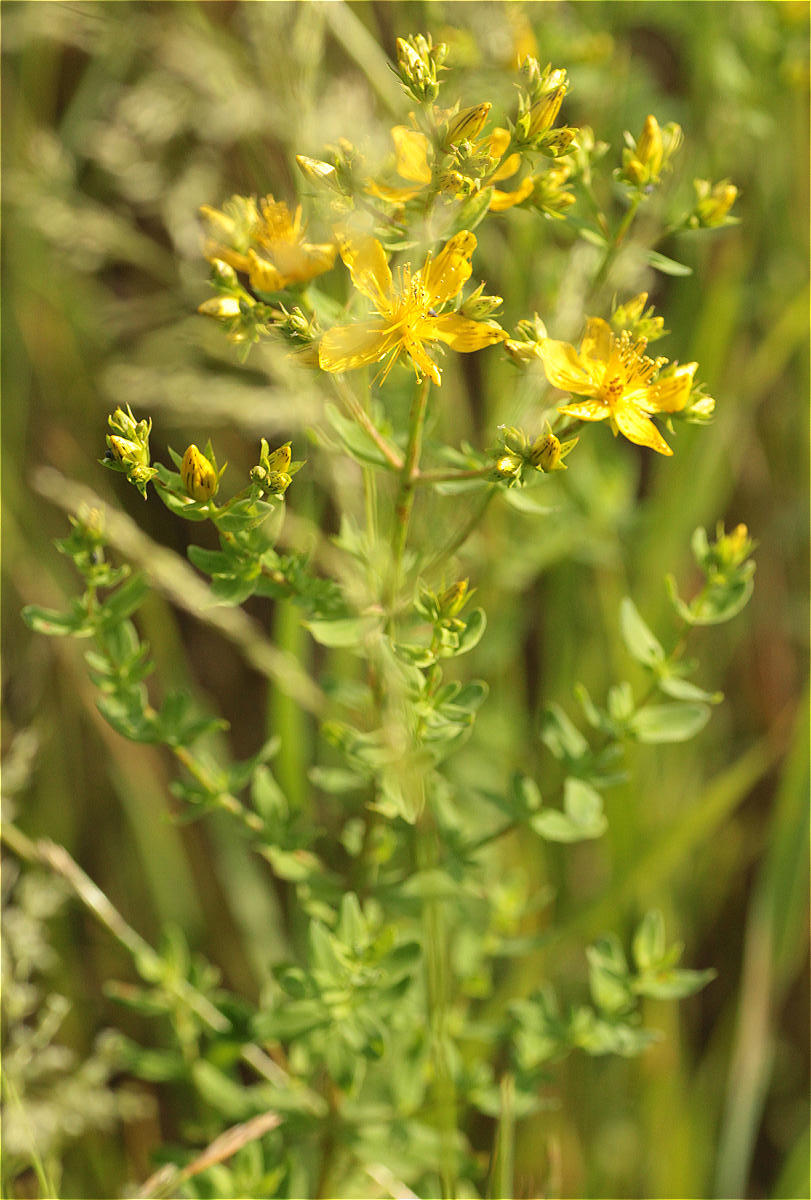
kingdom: Plantae
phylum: Tracheophyta
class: Magnoliopsida
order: Malpighiales
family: Hypericaceae
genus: Hypericum
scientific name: Hypericum perforatum
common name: Common st. johnswort
